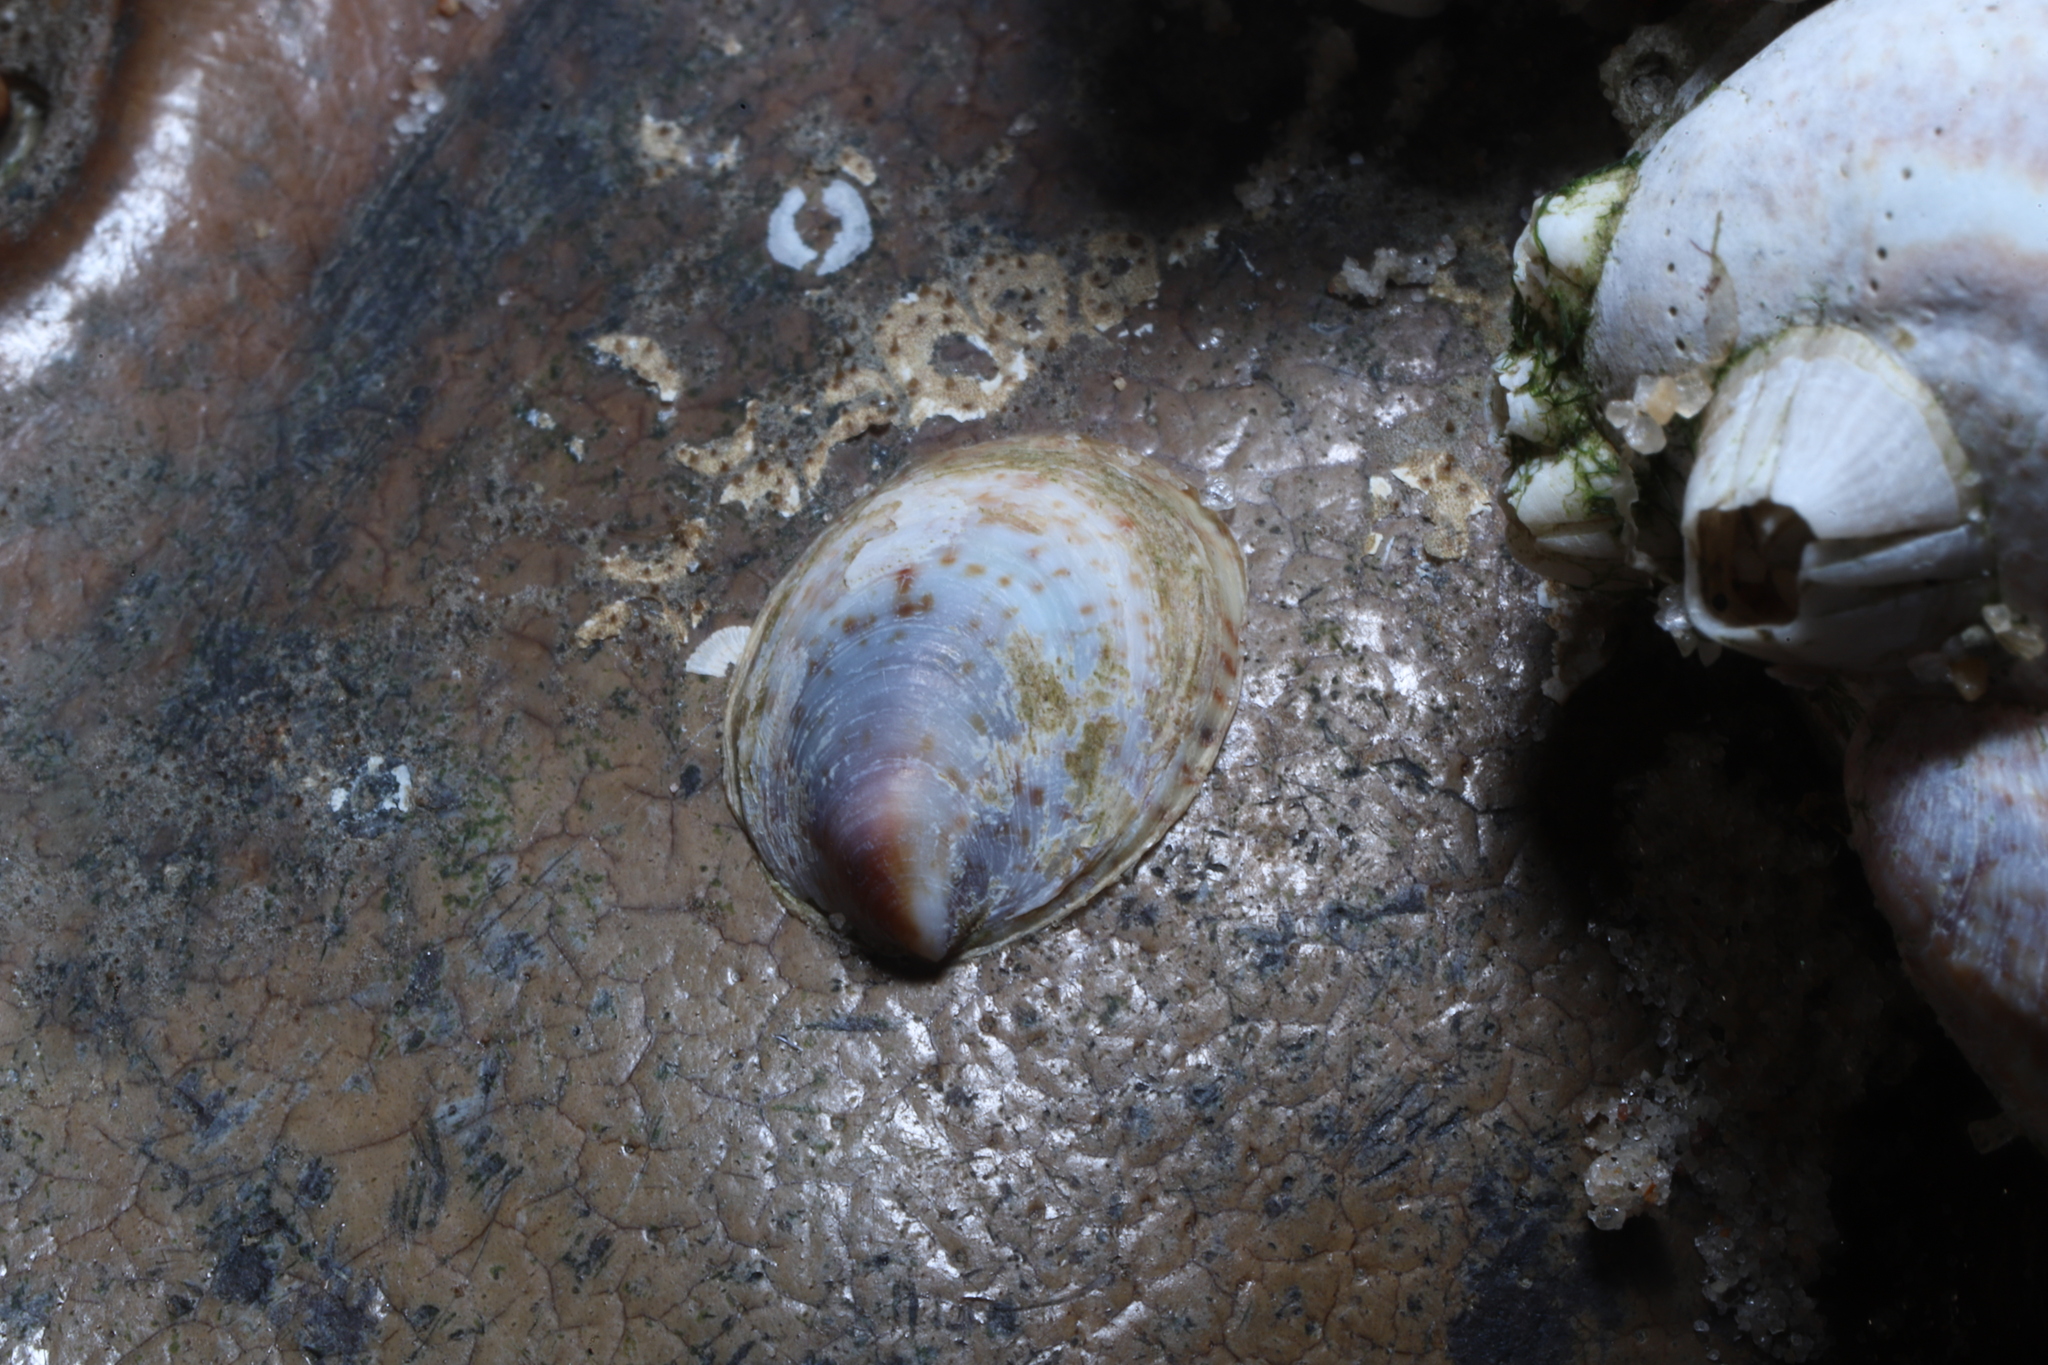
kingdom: Animalia
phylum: Mollusca
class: Gastropoda
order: Littorinimorpha
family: Calyptraeidae
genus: Crepidula
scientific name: Crepidula fornicata
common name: Slipper limpet
